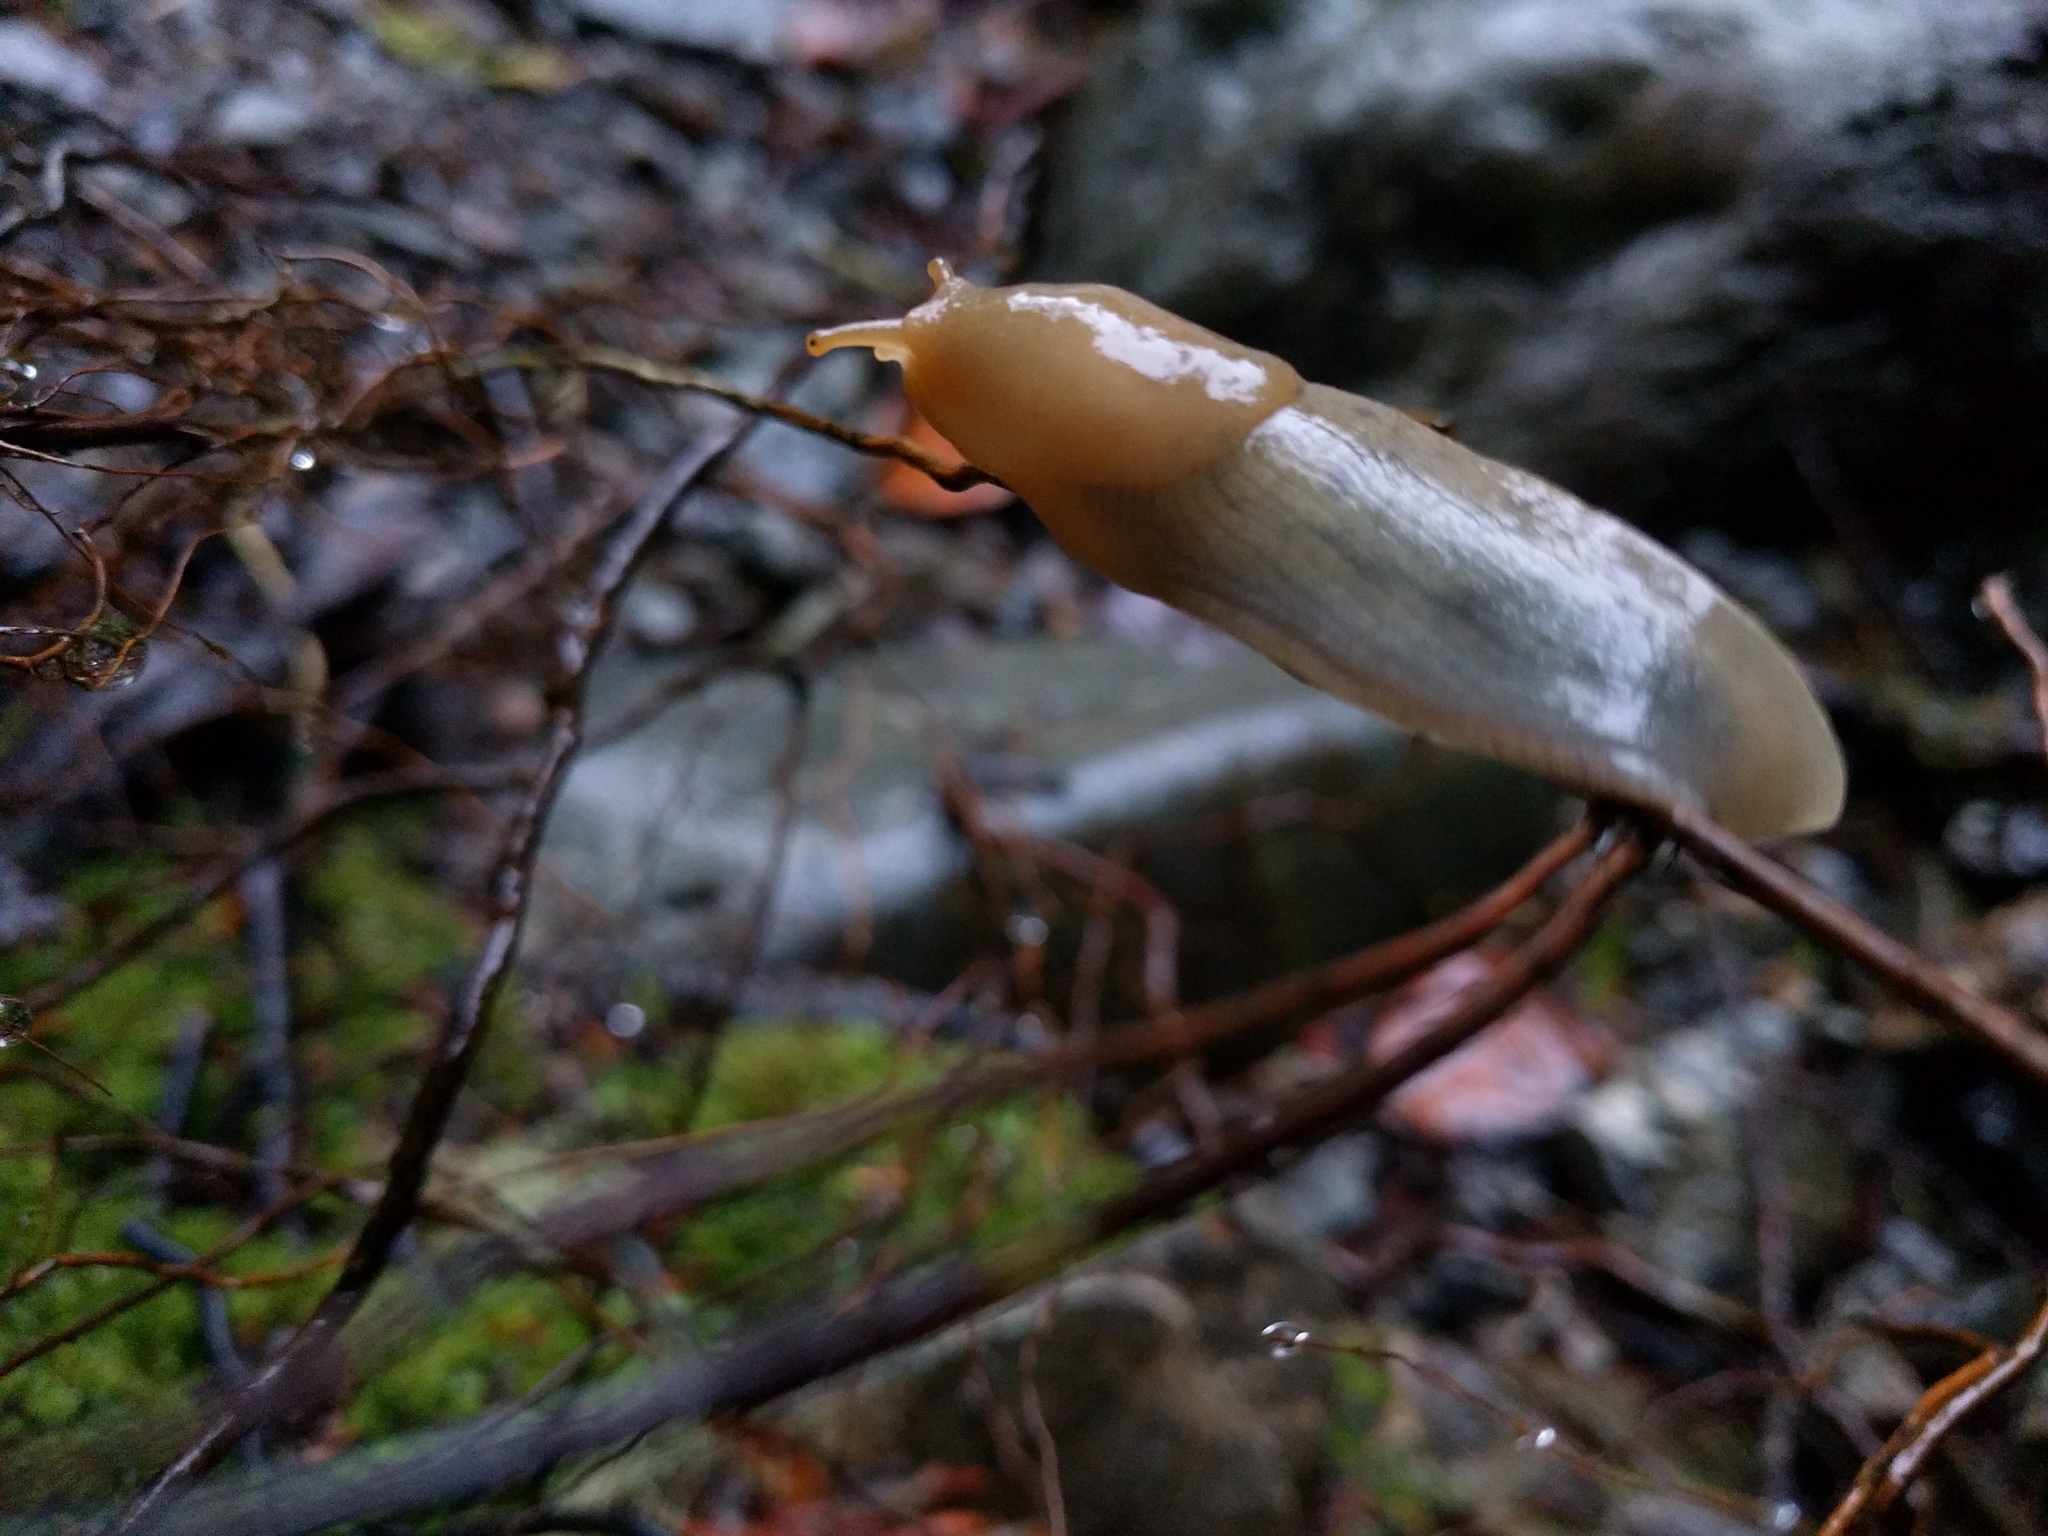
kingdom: Animalia
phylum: Mollusca
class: Gastropoda
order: Stylommatophora
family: Ariolimacidae
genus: Ariolimax
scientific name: Ariolimax columbianus
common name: Pacific banana slug
